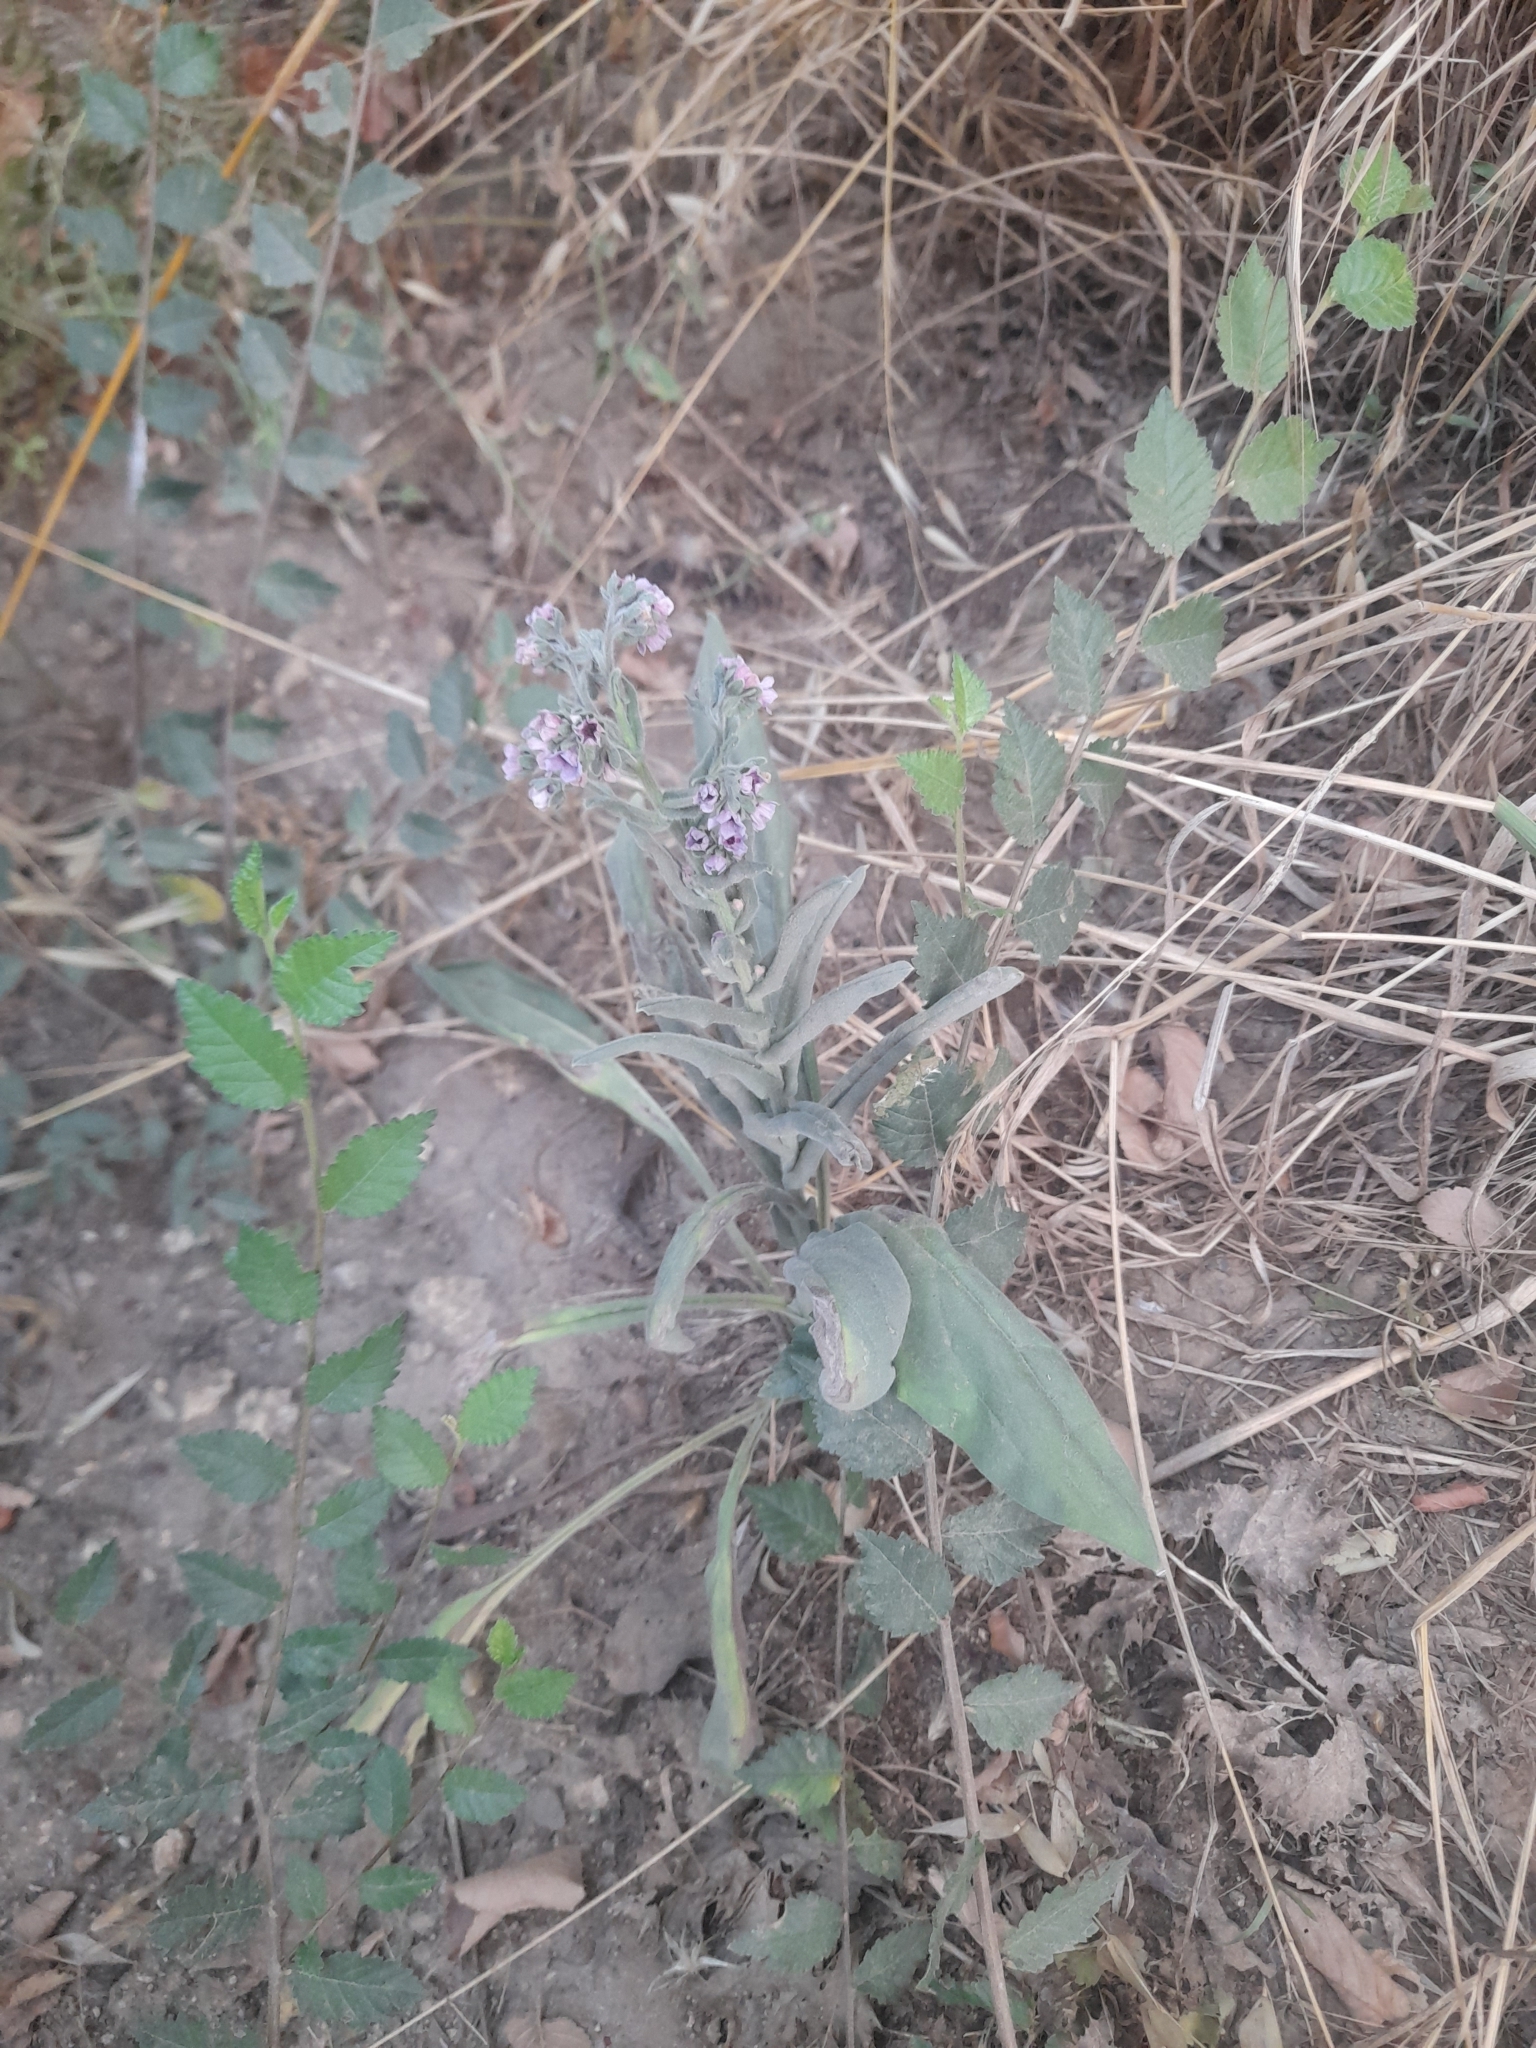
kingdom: Plantae
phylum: Tracheophyta
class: Magnoliopsida
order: Boraginales
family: Boraginaceae
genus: Cynoglossum
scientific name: Cynoglossum creticum
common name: Blue hound's tongue
